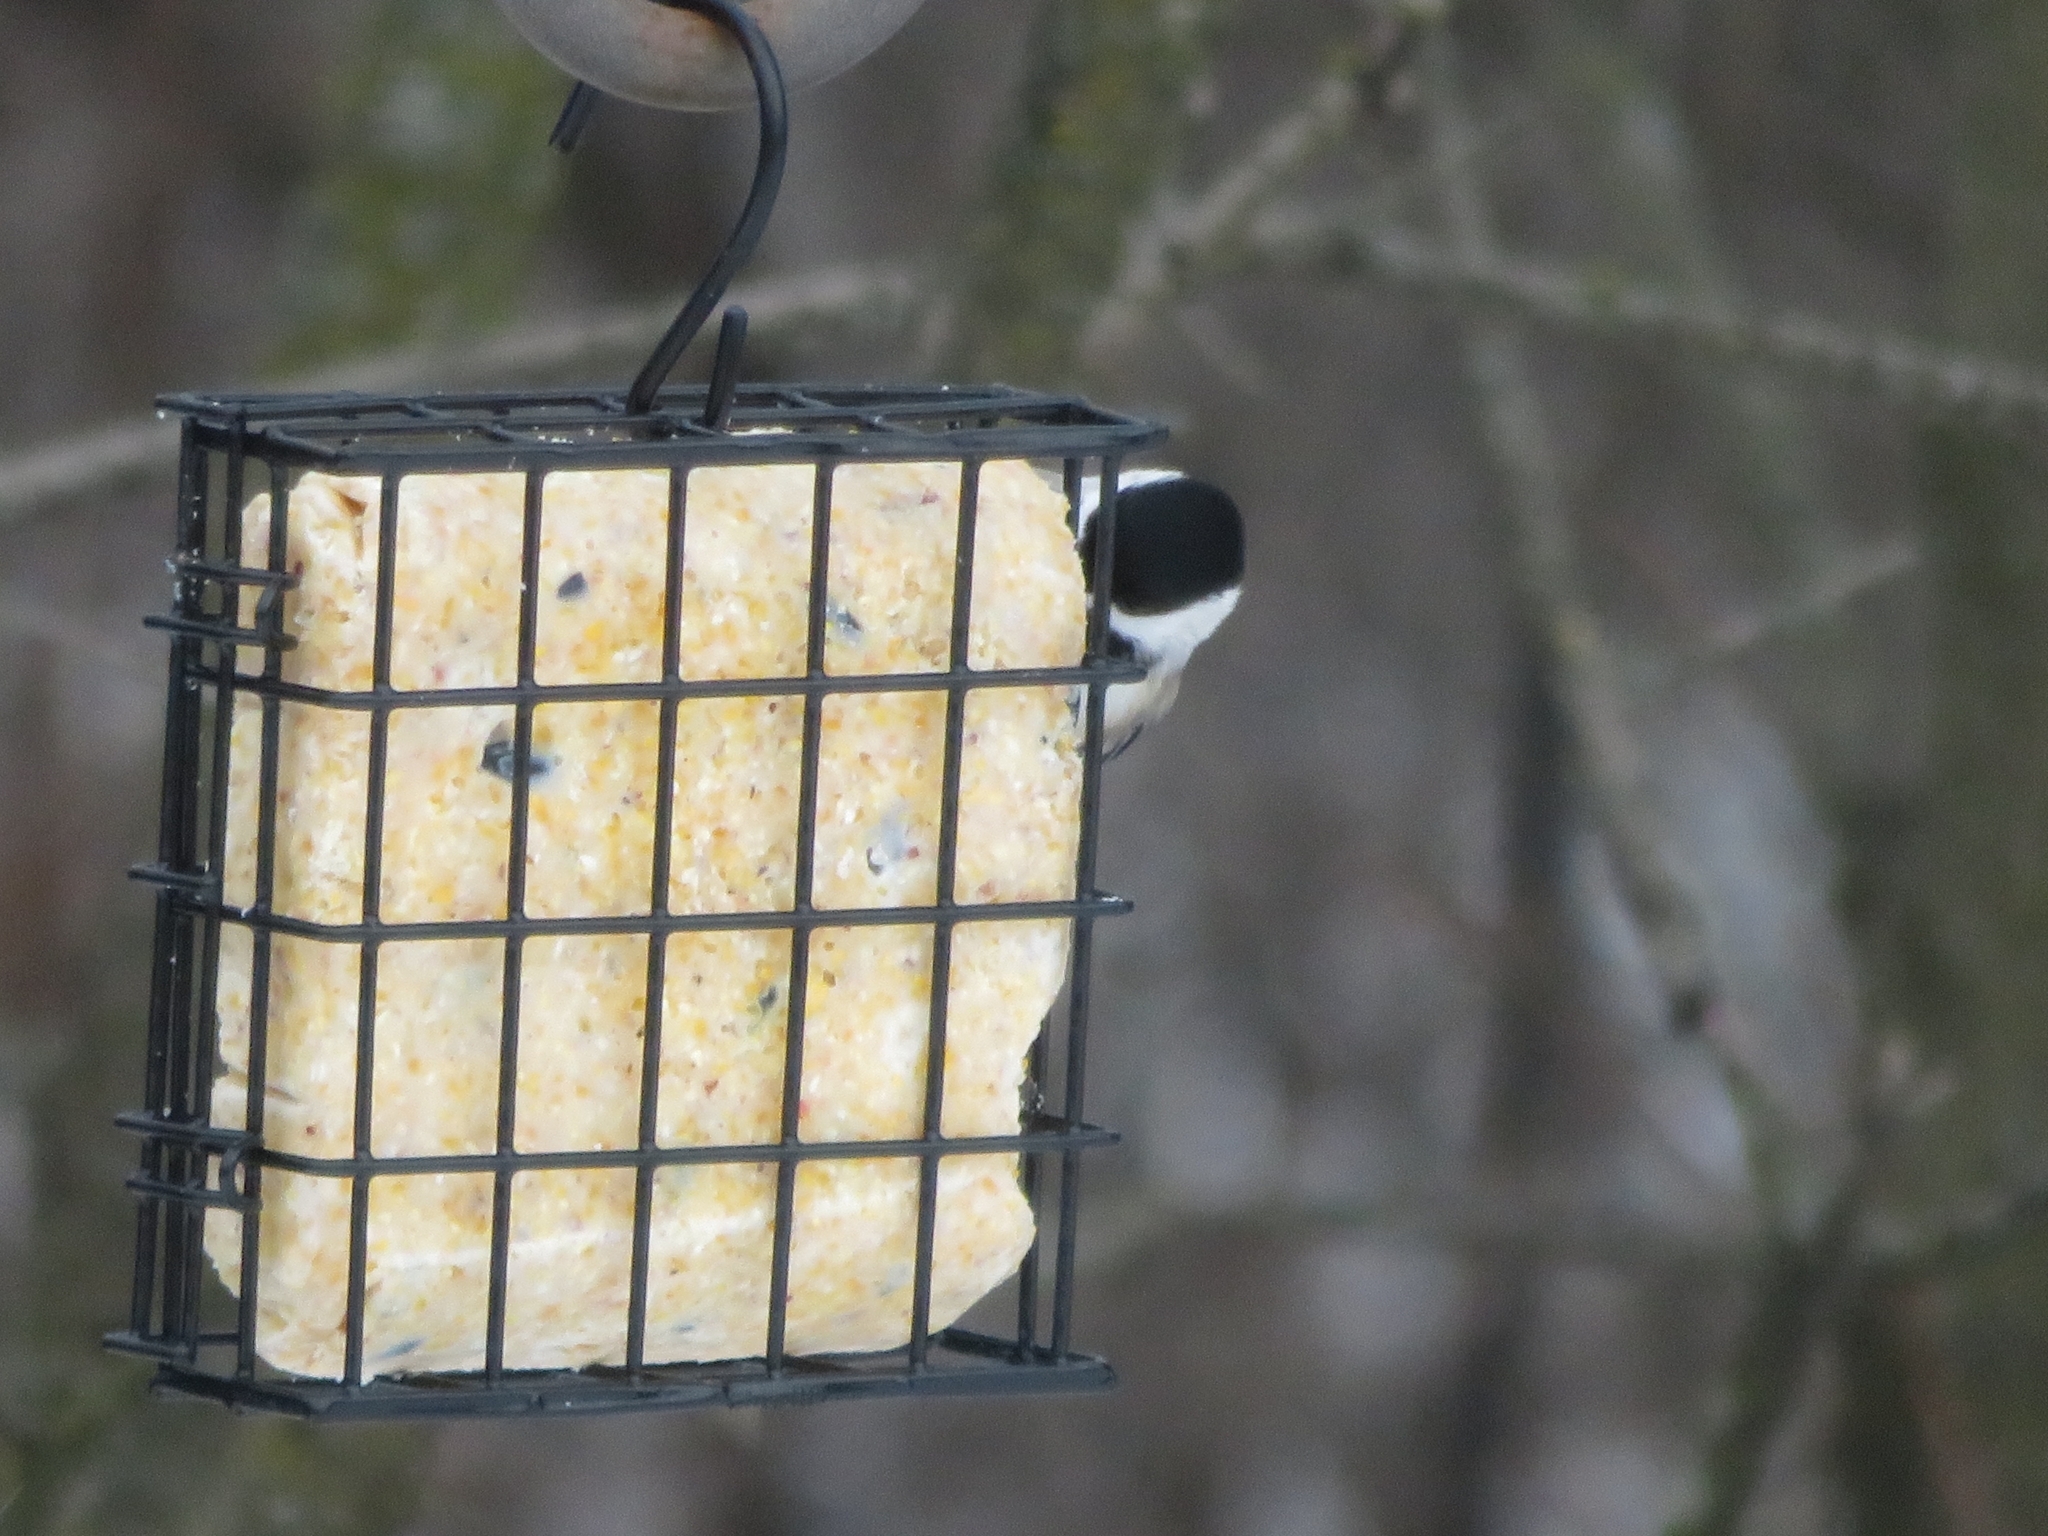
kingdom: Animalia
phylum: Chordata
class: Aves
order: Passeriformes
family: Paridae
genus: Poecile
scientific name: Poecile atricapillus
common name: Black-capped chickadee
